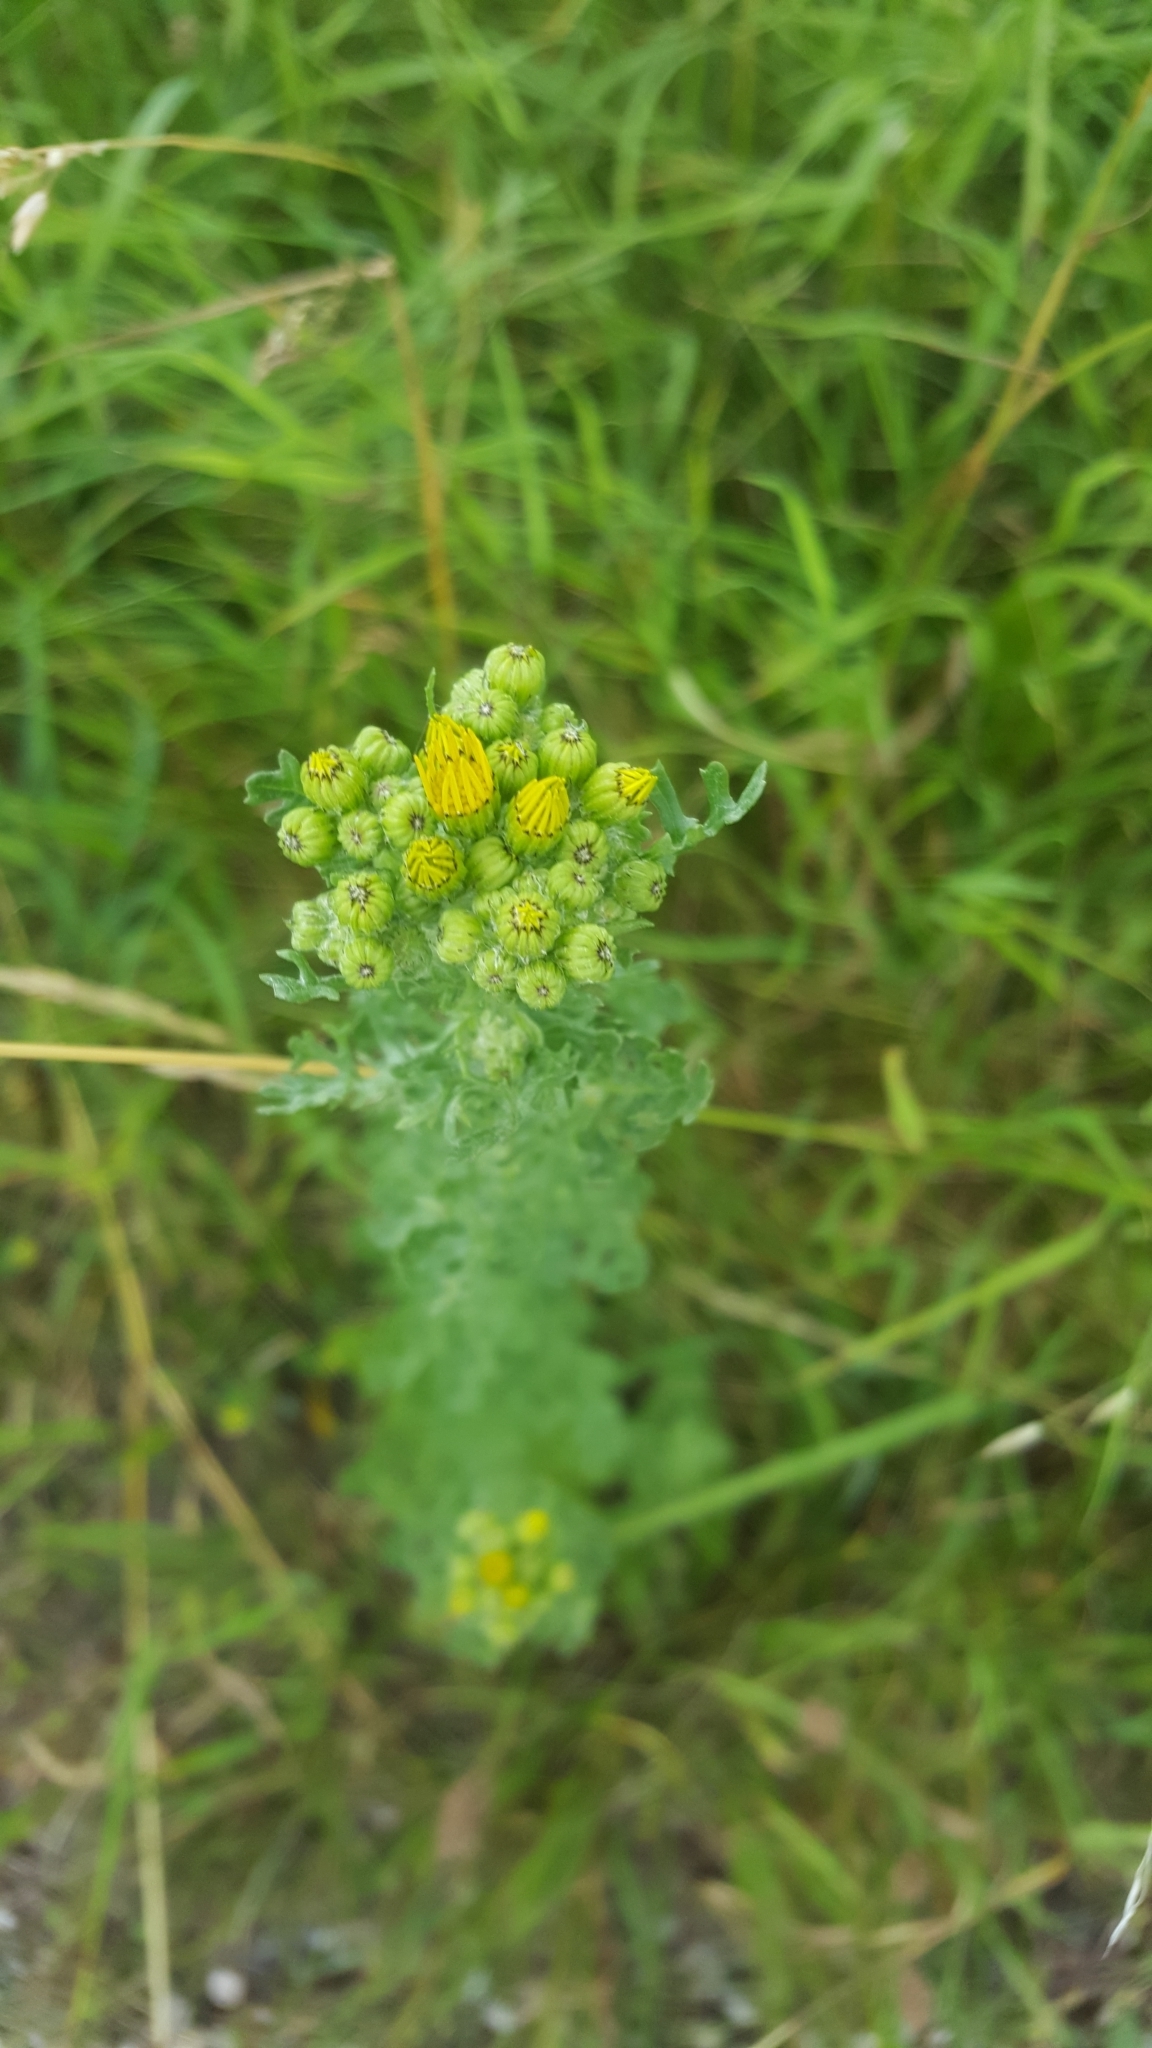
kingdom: Plantae
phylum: Tracheophyta
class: Magnoliopsida
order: Asterales
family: Asteraceae
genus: Jacobaea
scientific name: Jacobaea vulgaris
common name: Stinking willie
